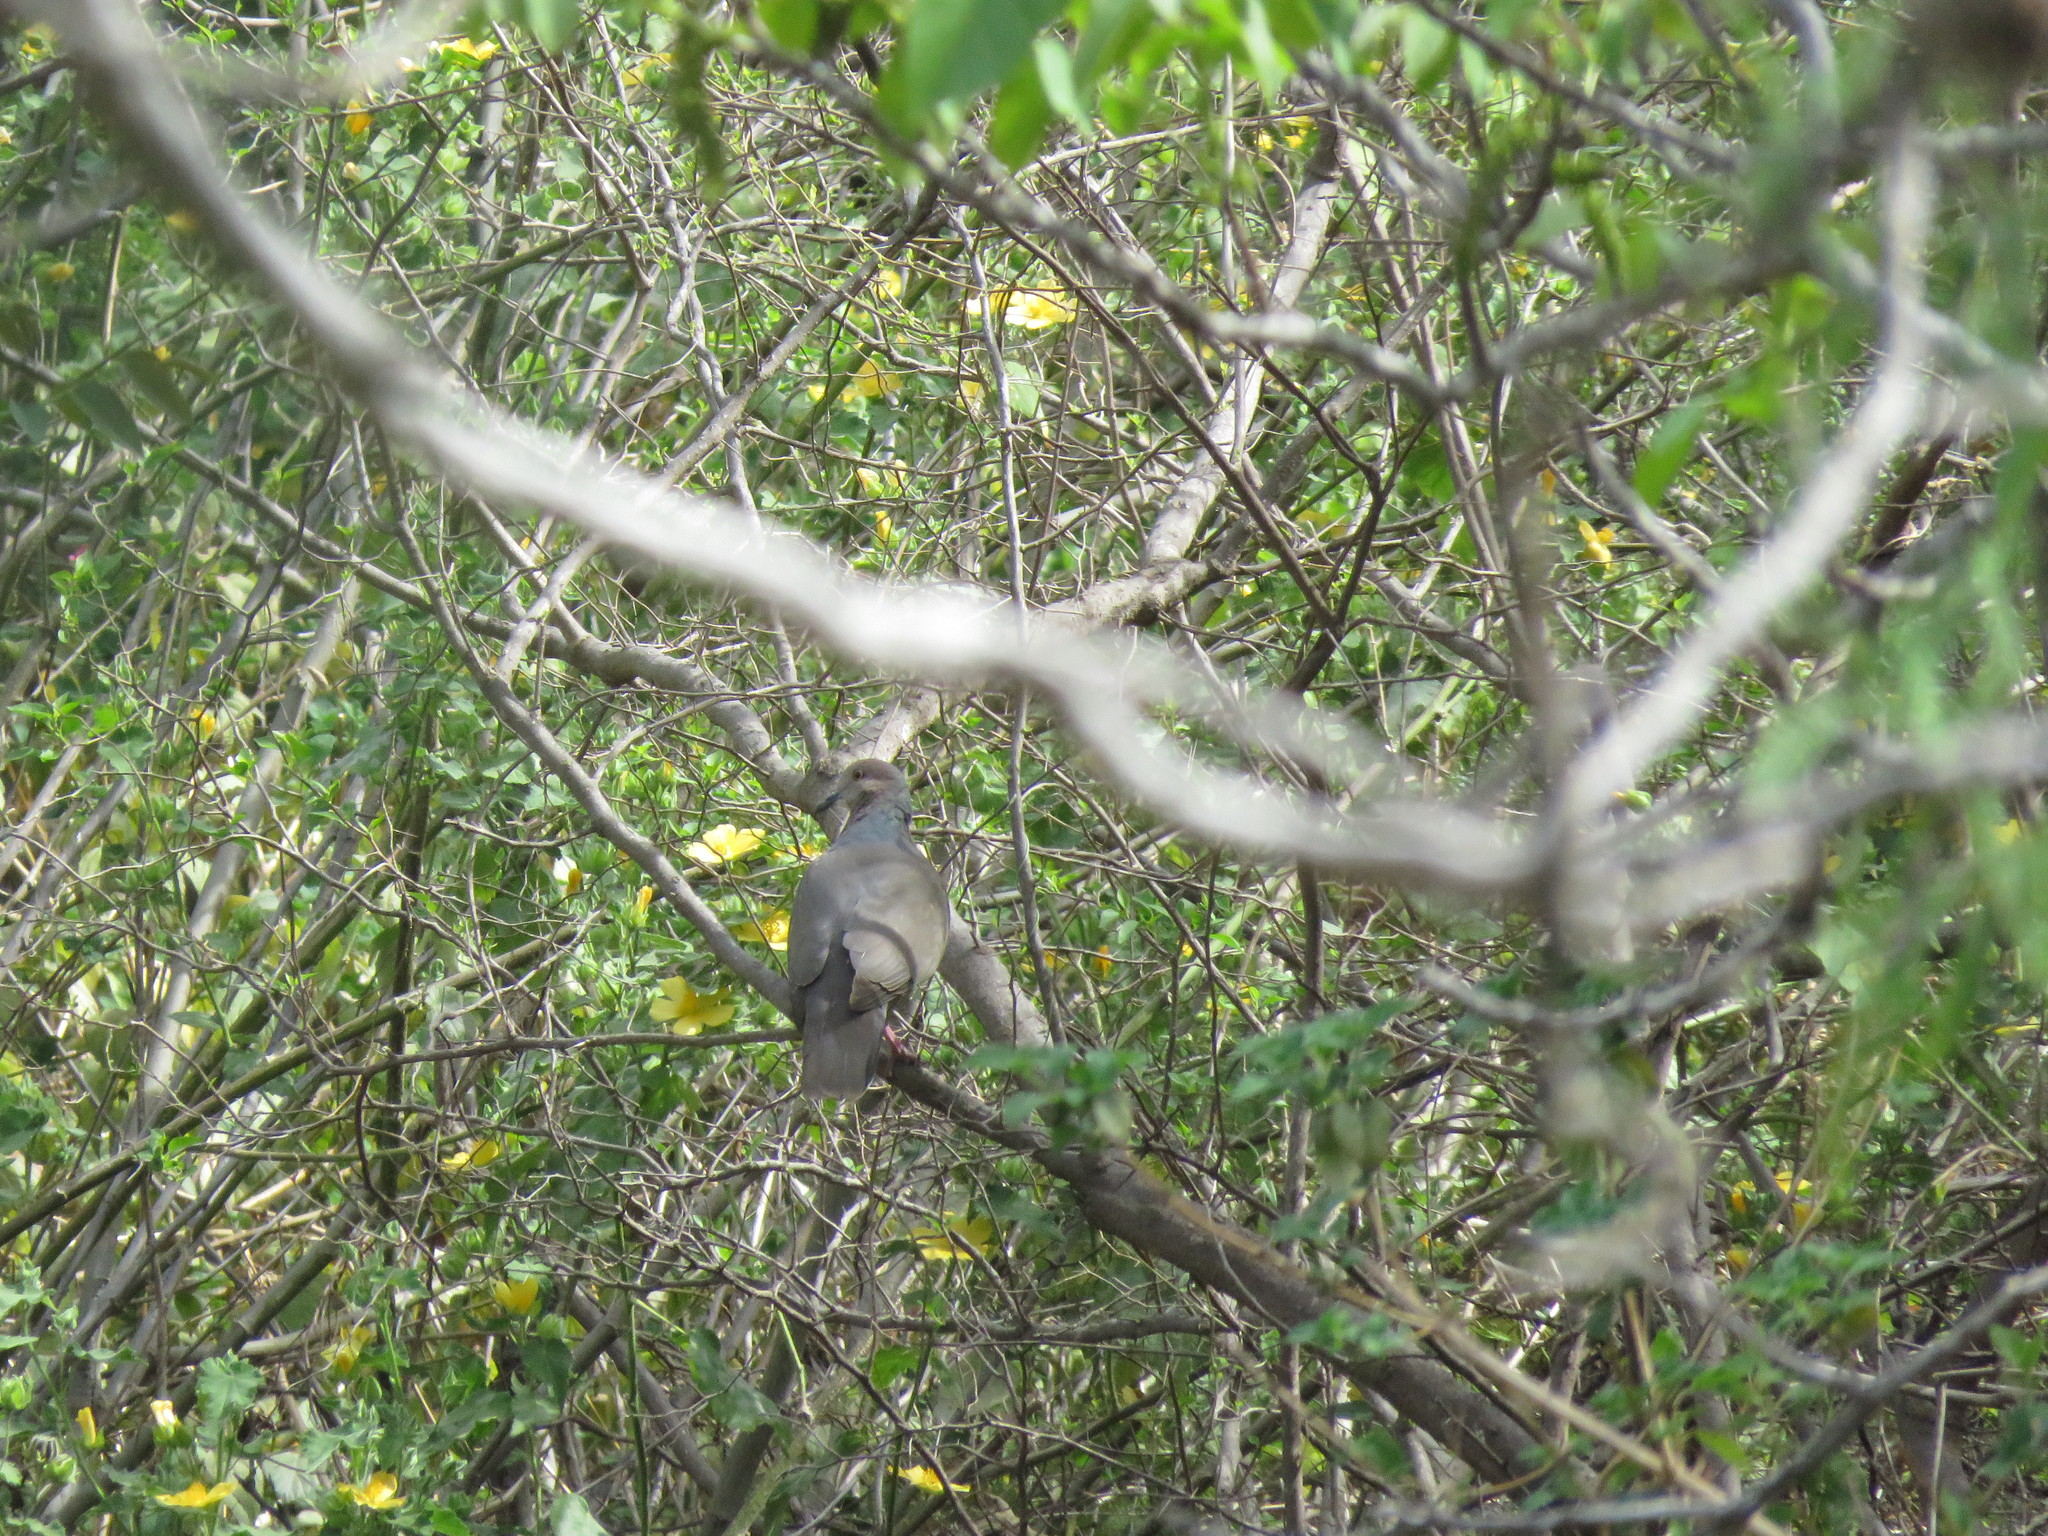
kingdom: Animalia
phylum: Chordata
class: Aves
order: Columbiformes
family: Columbidae
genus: Leptotila
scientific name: Leptotila verreauxi
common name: White-tipped dove
